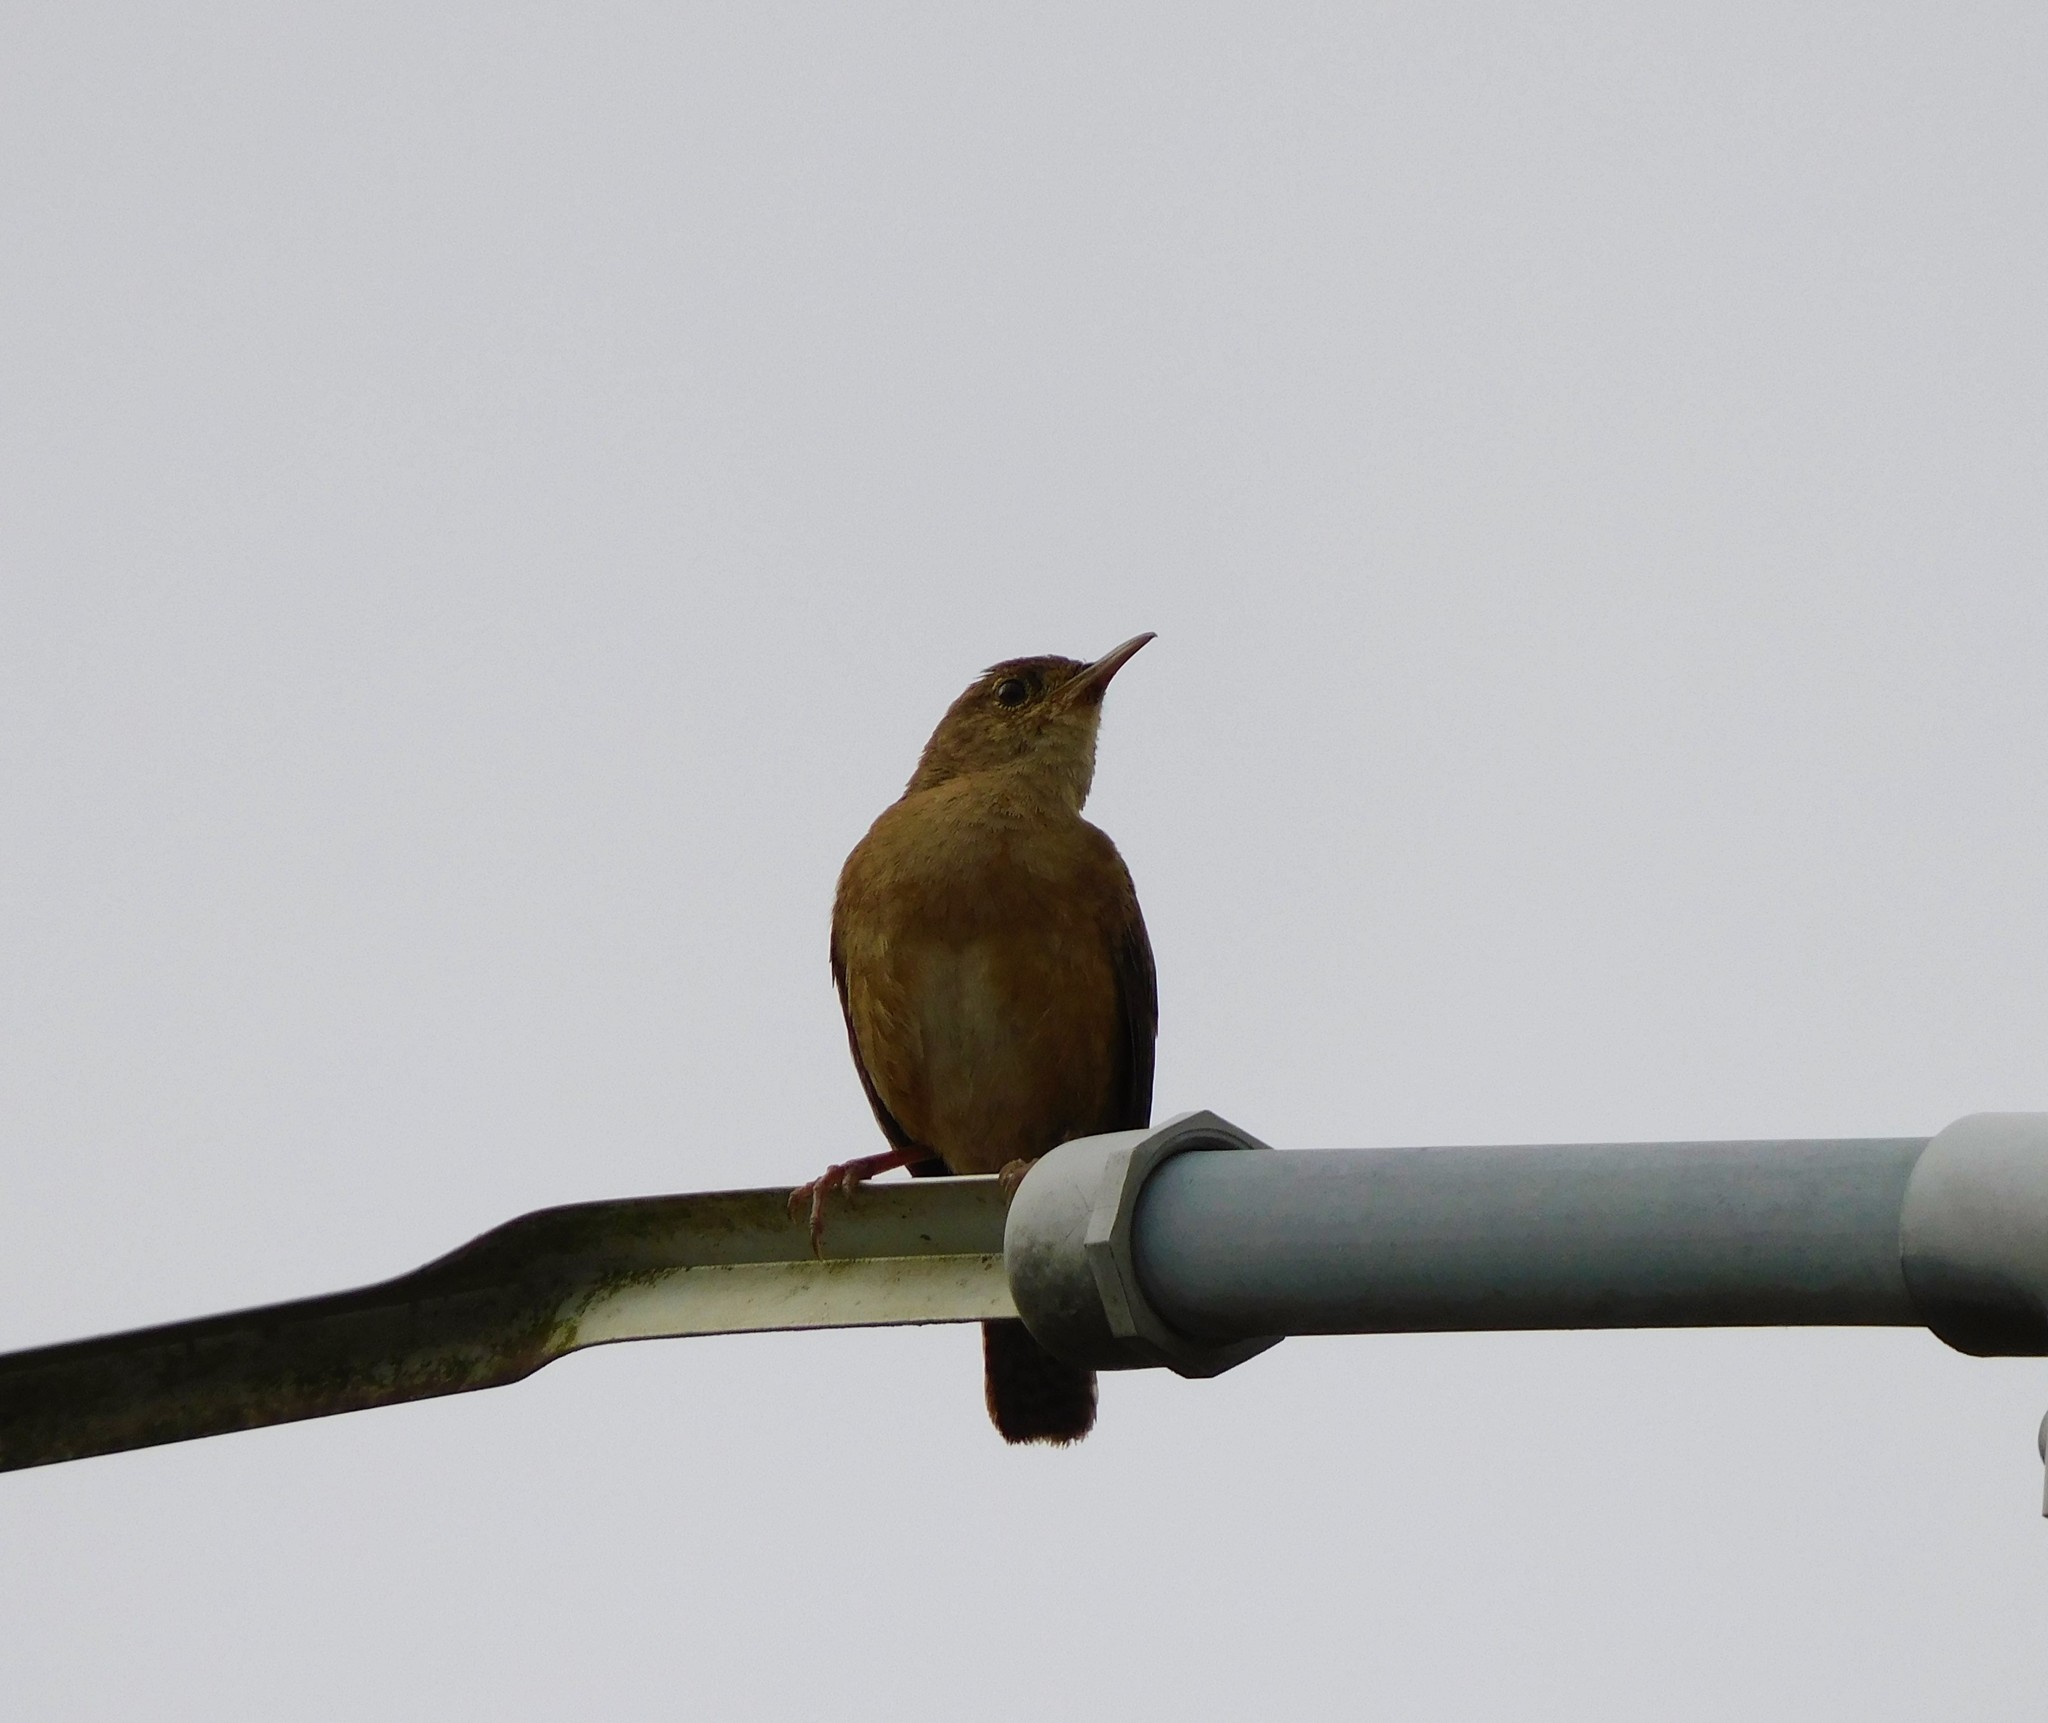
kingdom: Animalia
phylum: Chordata
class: Aves
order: Passeriformes
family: Troglodytidae
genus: Troglodytes
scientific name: Troglodytes aedon
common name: House wren
